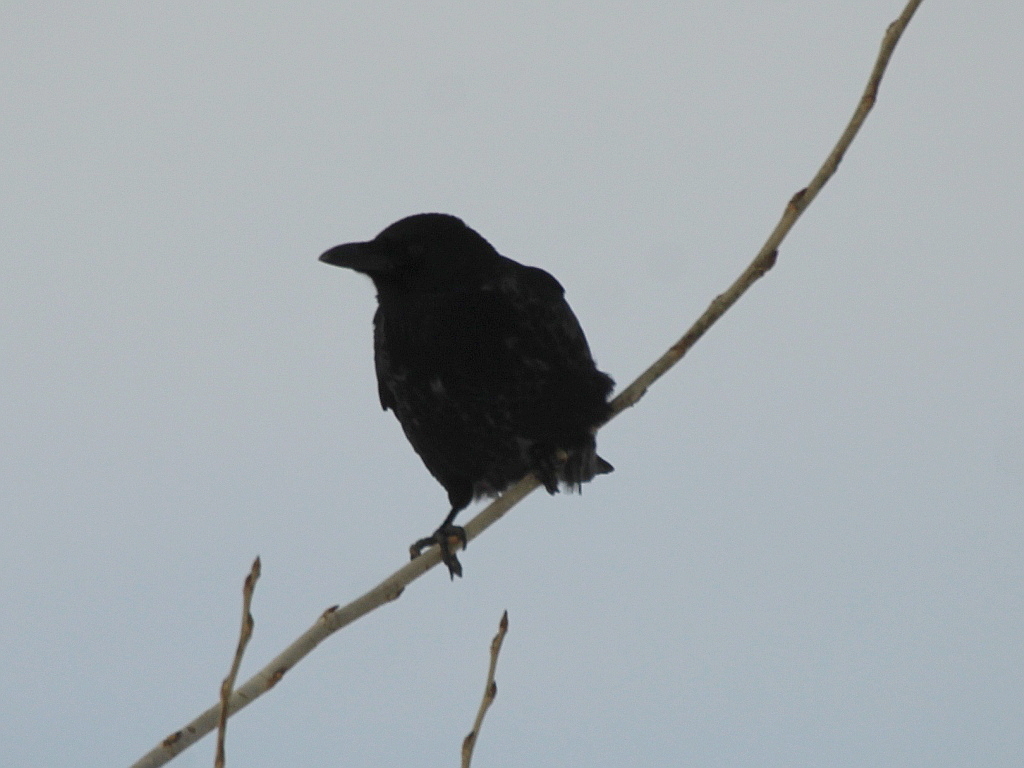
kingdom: Animalia
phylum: Chordata
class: Aves
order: Passeriformes
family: Corvidae
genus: Corvus
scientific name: Corvus corone
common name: Carrion crow
